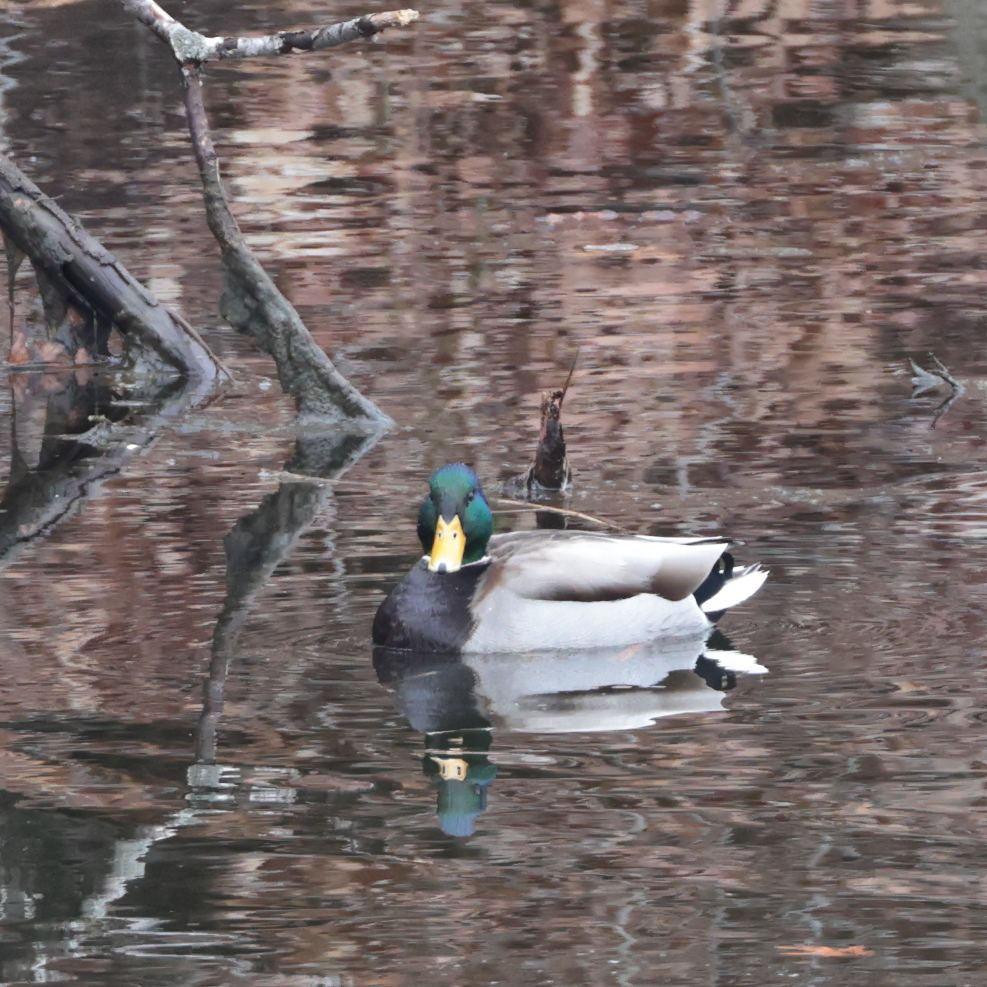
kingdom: Animalia
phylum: Chordata
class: Aves
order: Anseriformes
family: Anatidae
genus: Anas
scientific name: Anas platyrhynchos
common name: Mallard
